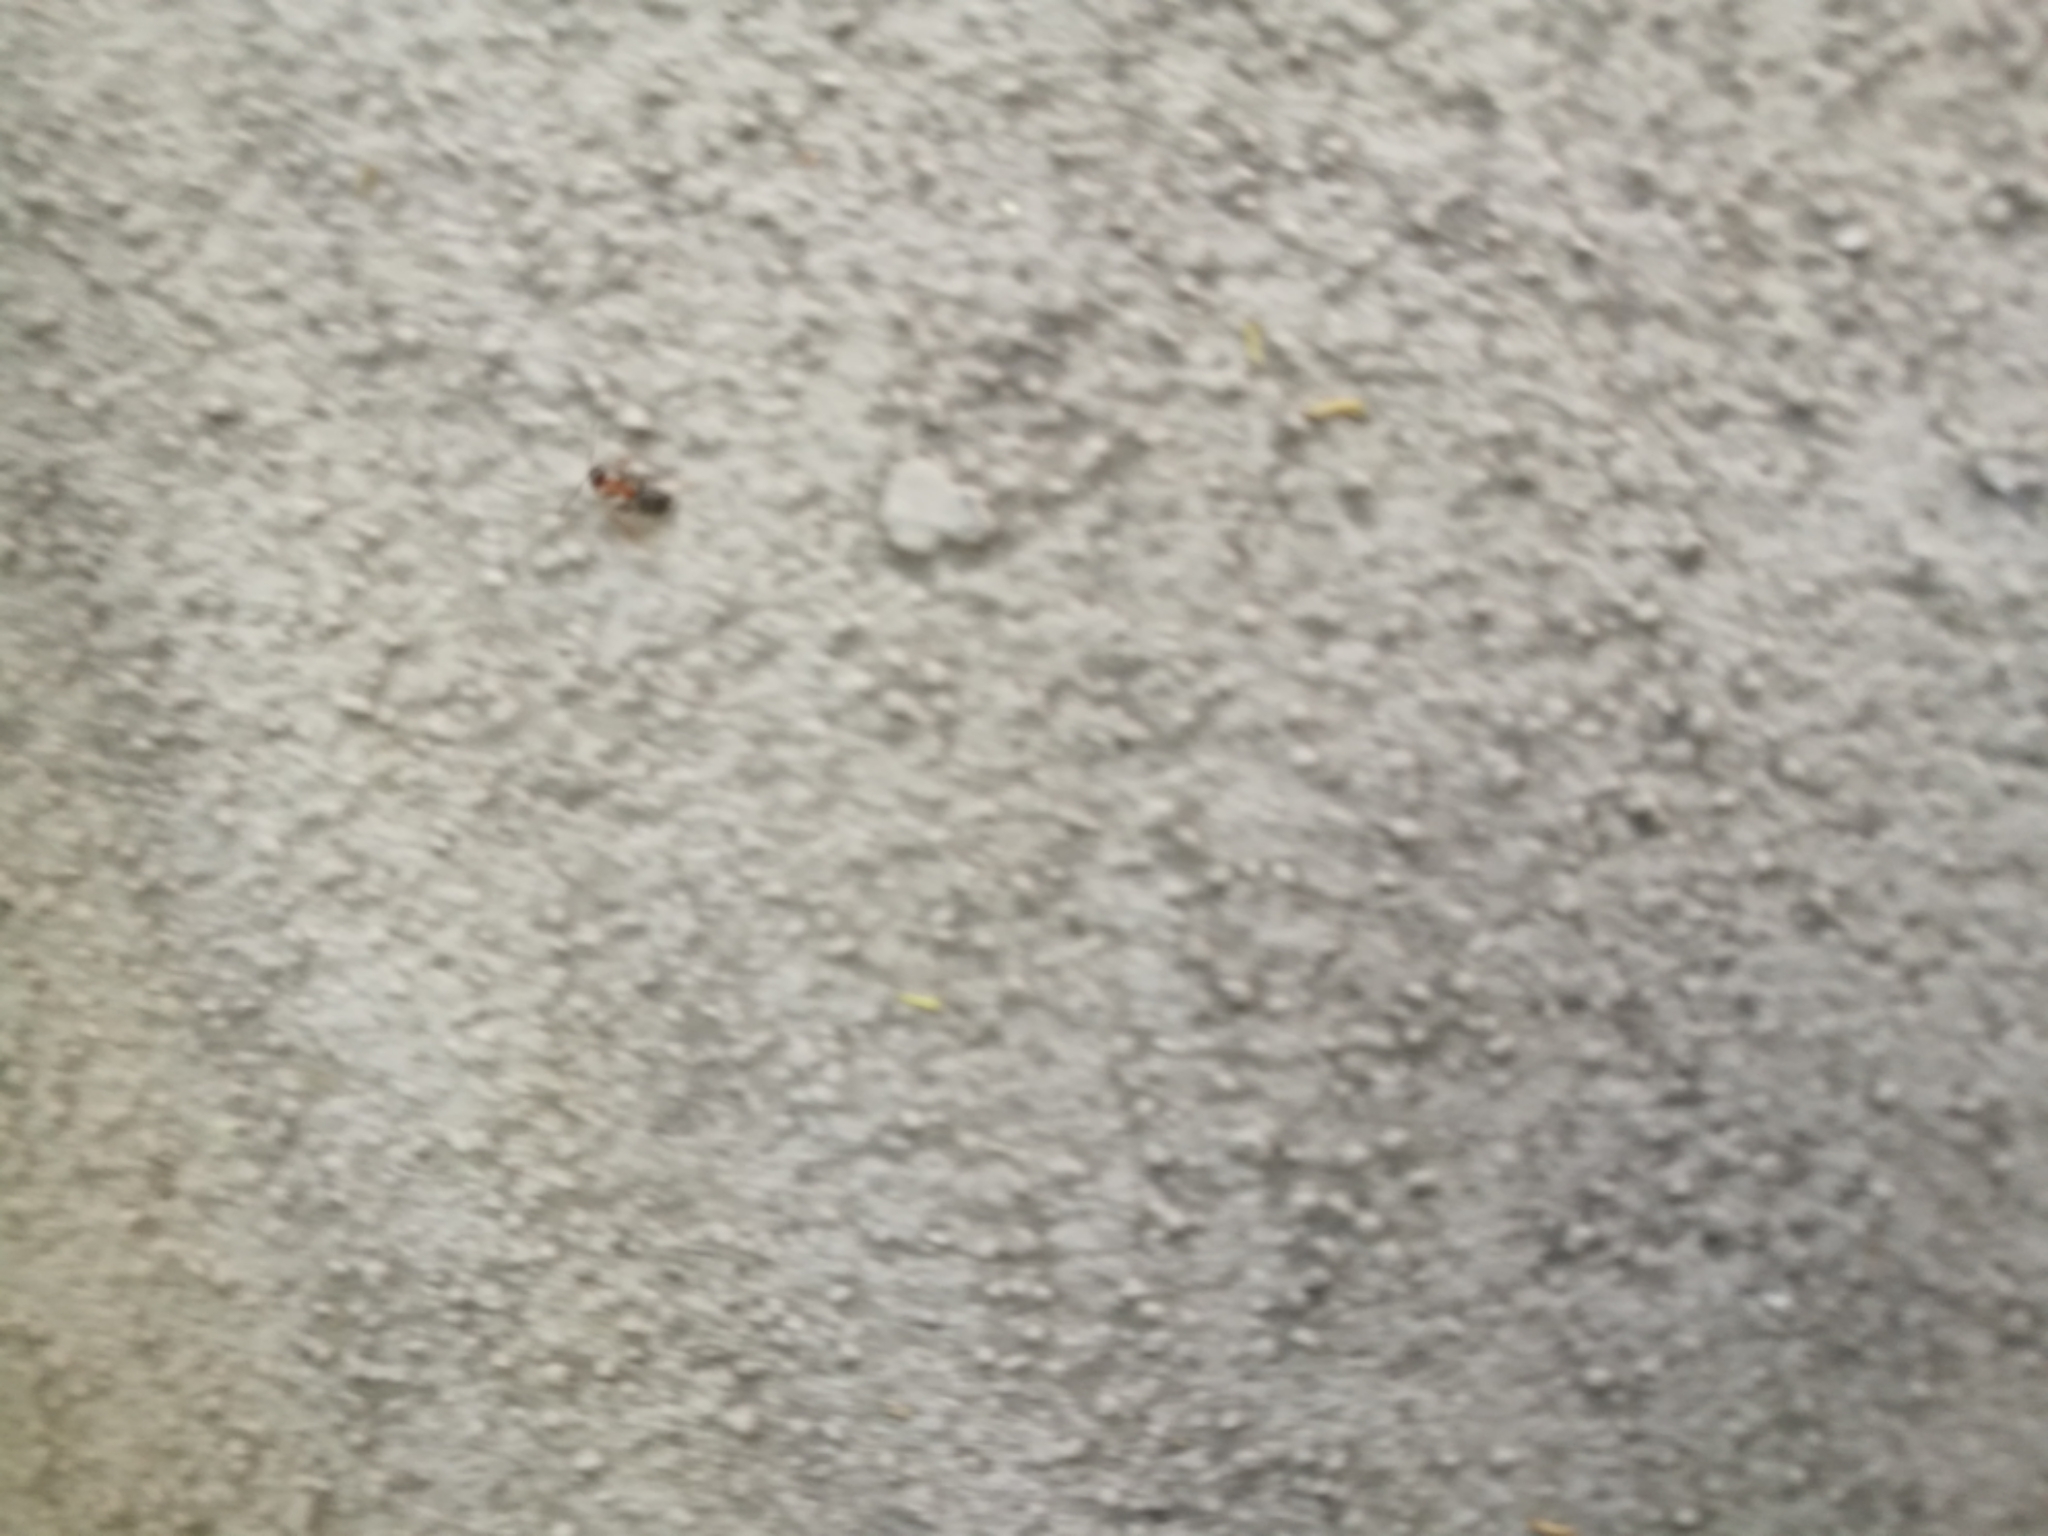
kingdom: Animalia
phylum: Arthropoda
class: Insecta
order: Hymenoptera
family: Formicidae
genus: Lasius
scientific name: Lasius emarginatus
